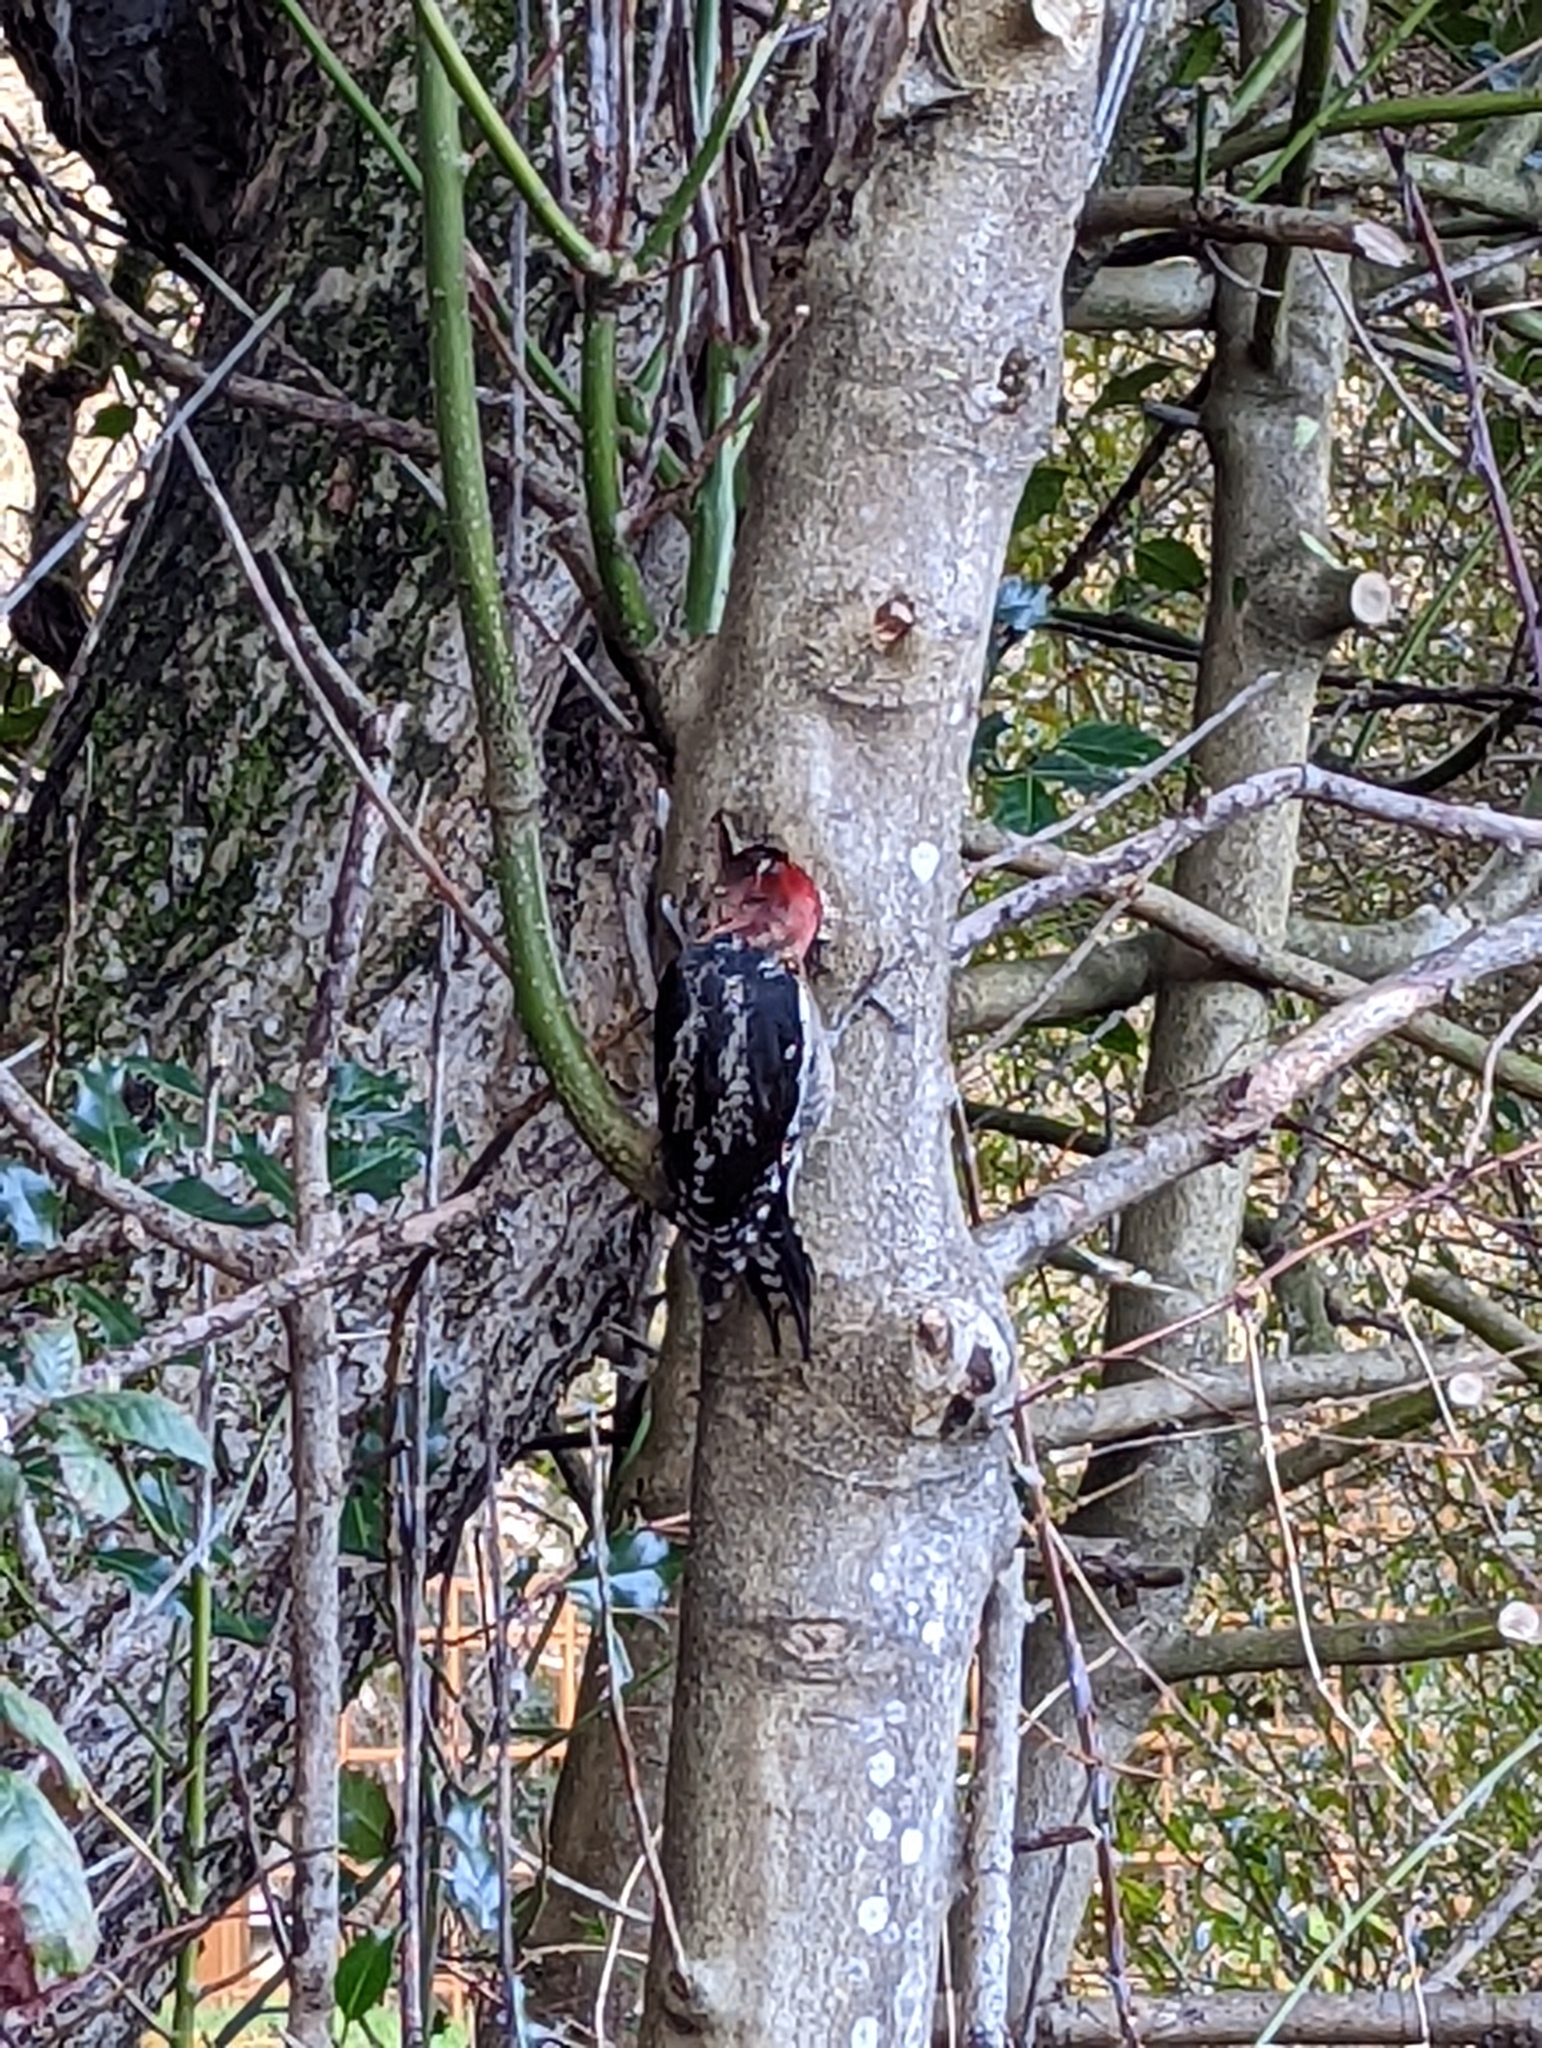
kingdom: Animalia
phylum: Chordata
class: Aves
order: Piciformes
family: Picidae
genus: Sphyrapicus
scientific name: Sphyrapicus ruber
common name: Red-breasted sapsucker
